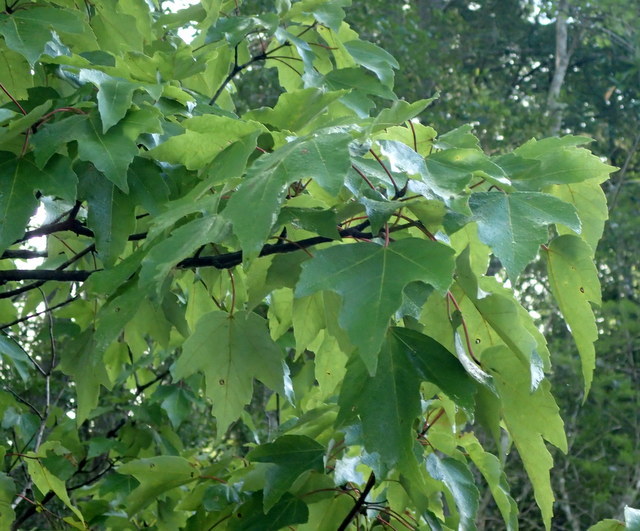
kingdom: Plantae
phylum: Tracheophyta
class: Magnoliopsida
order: Sapindales
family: Sapindaceae
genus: Acer
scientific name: Acer rubrum
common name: Red maple
